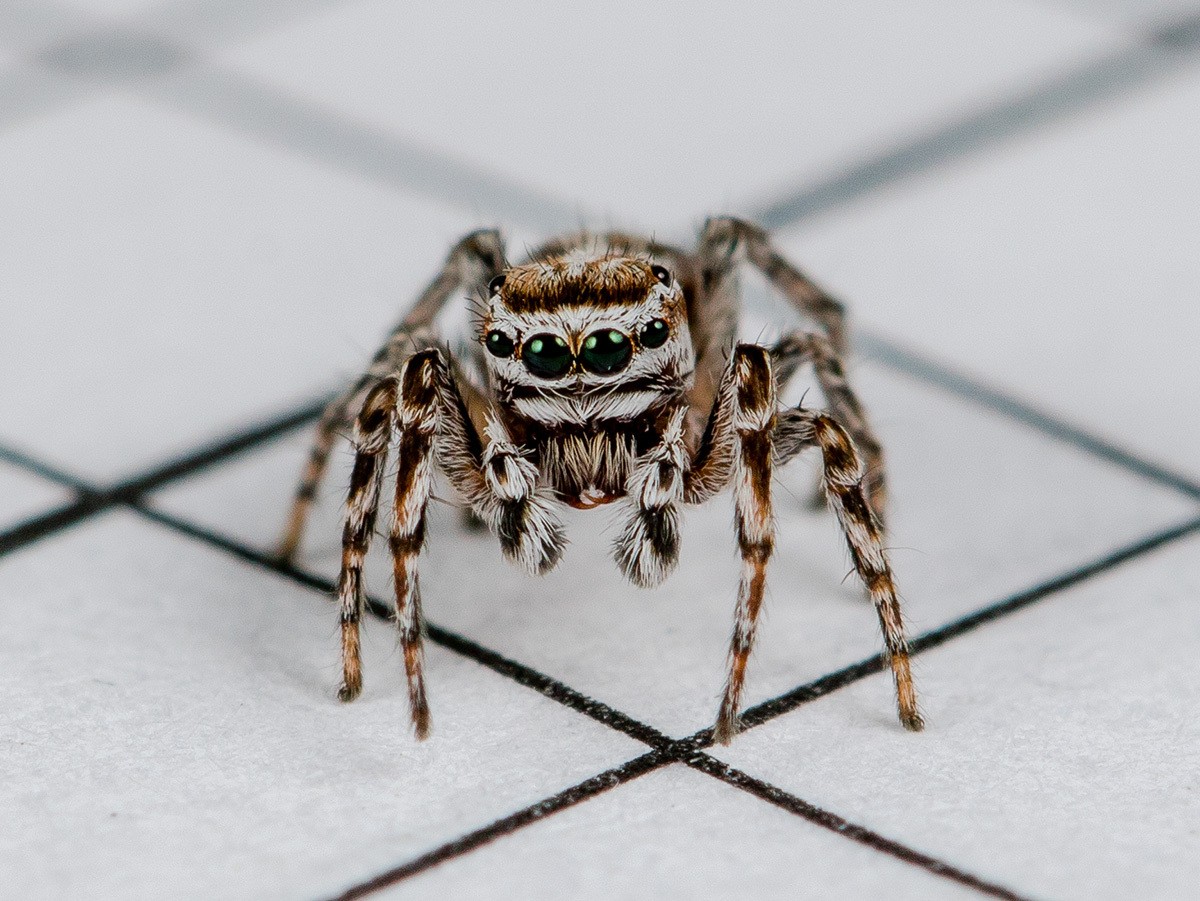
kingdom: Animalia
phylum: Arthropoda
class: Arachnida
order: Araneae
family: Salticidae
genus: Attulus
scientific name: Attulus nenilini
